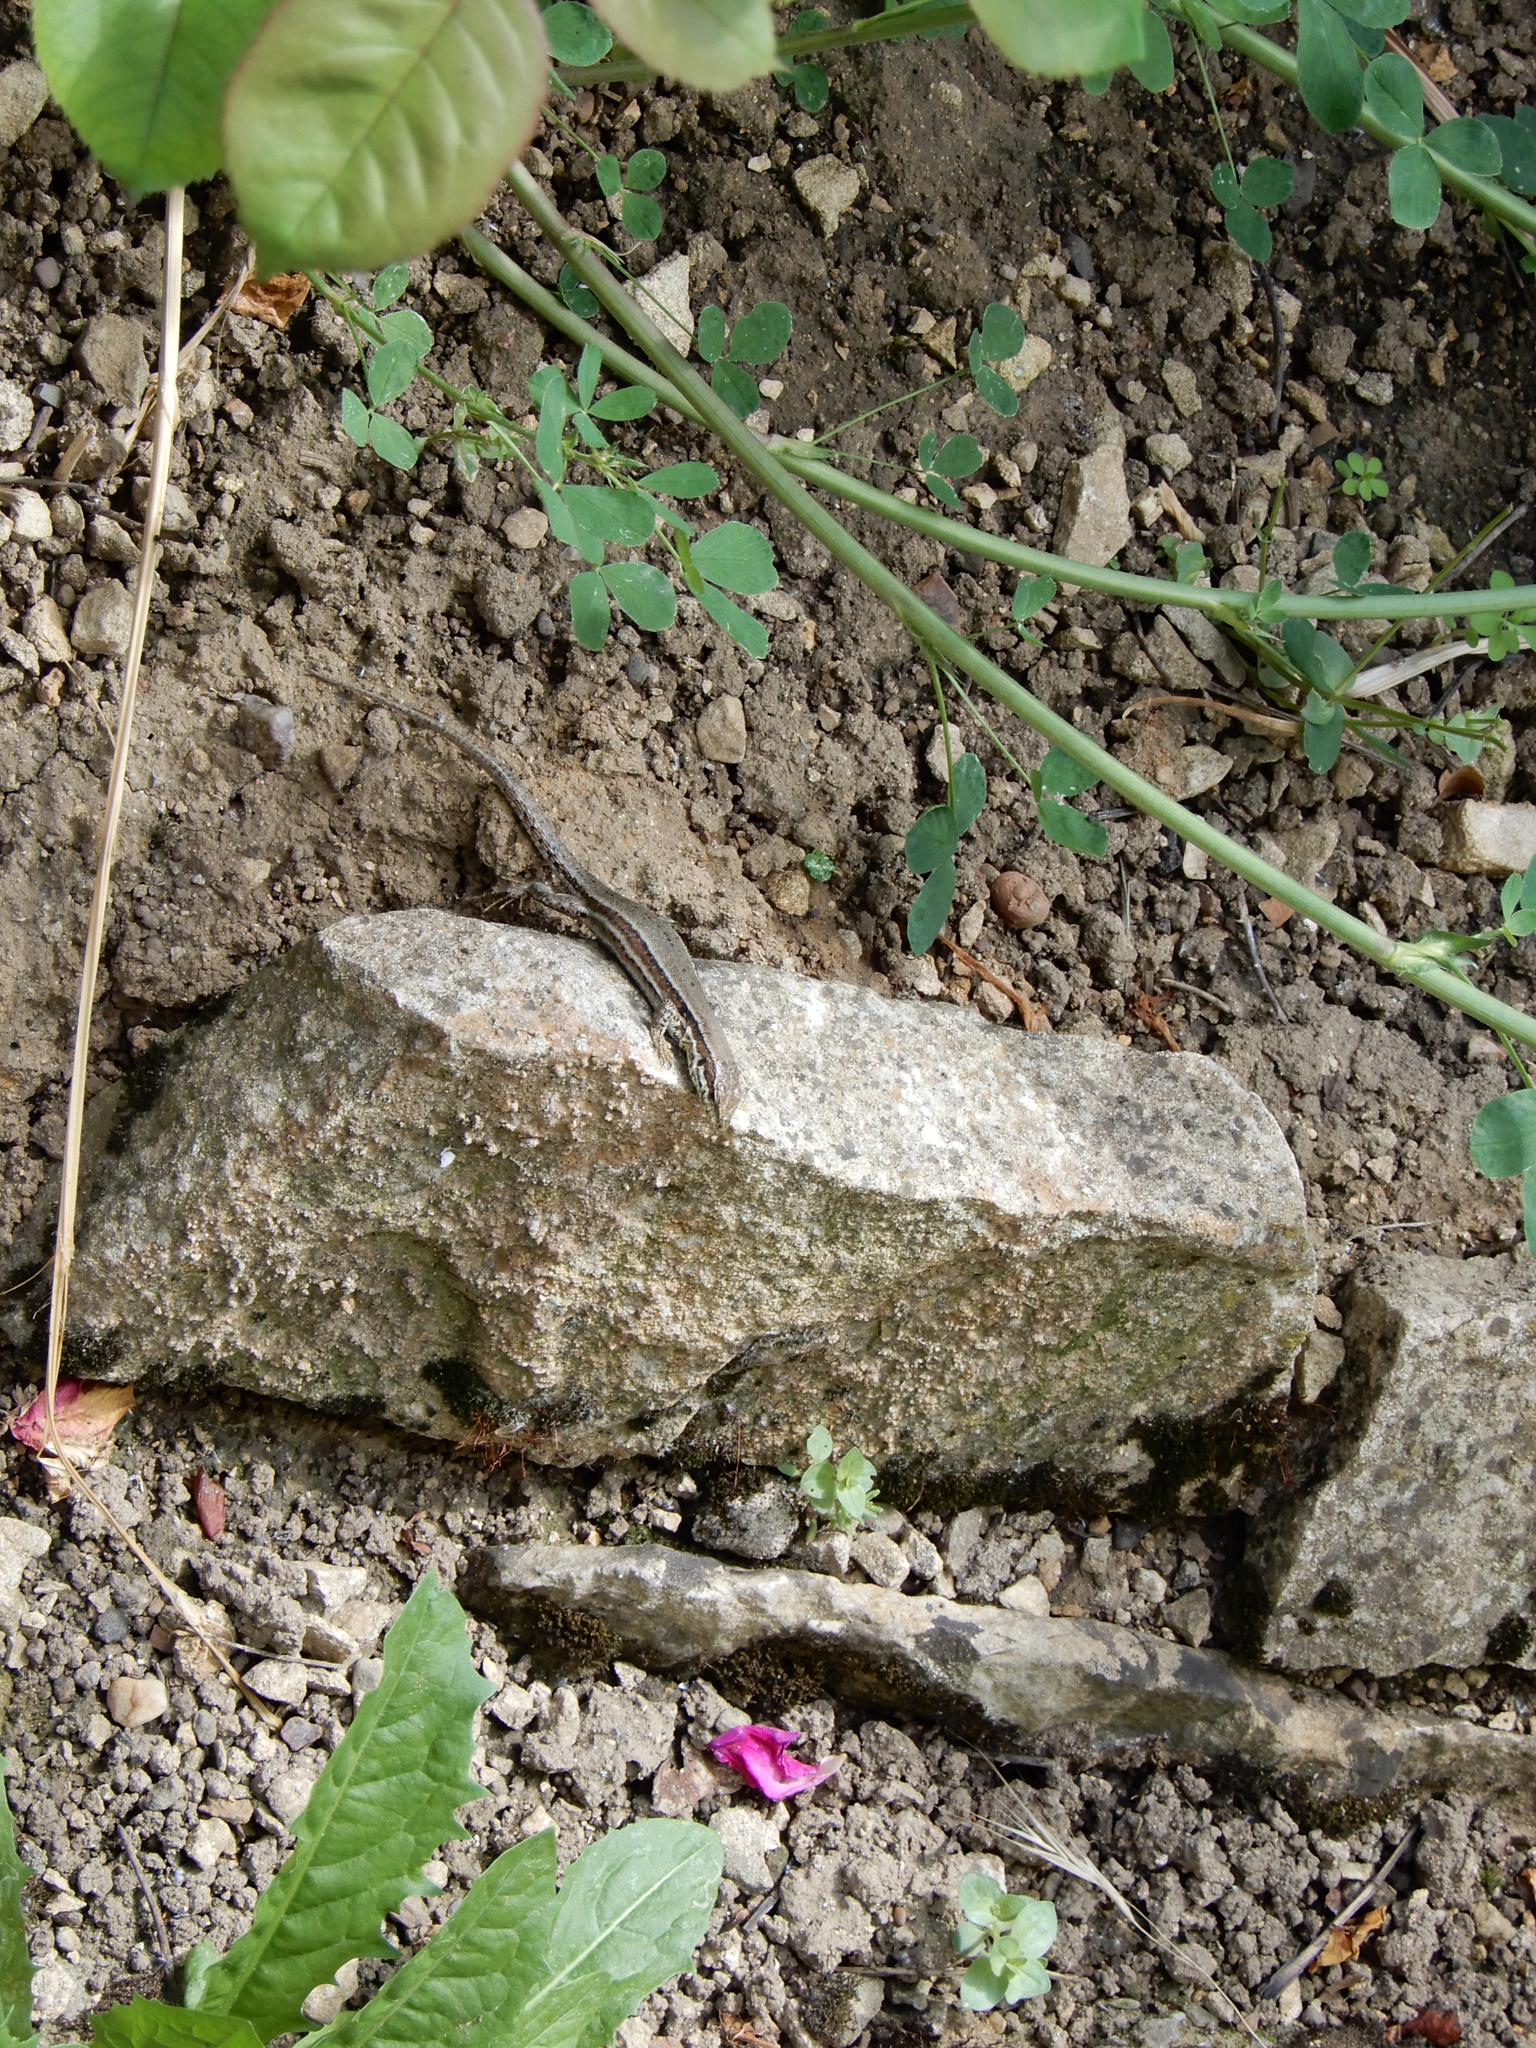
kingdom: Animalia
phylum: Chordata
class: Squamata
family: Lacertidae
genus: Podarcis
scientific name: Podarcis muralis
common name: Common wall lizard
